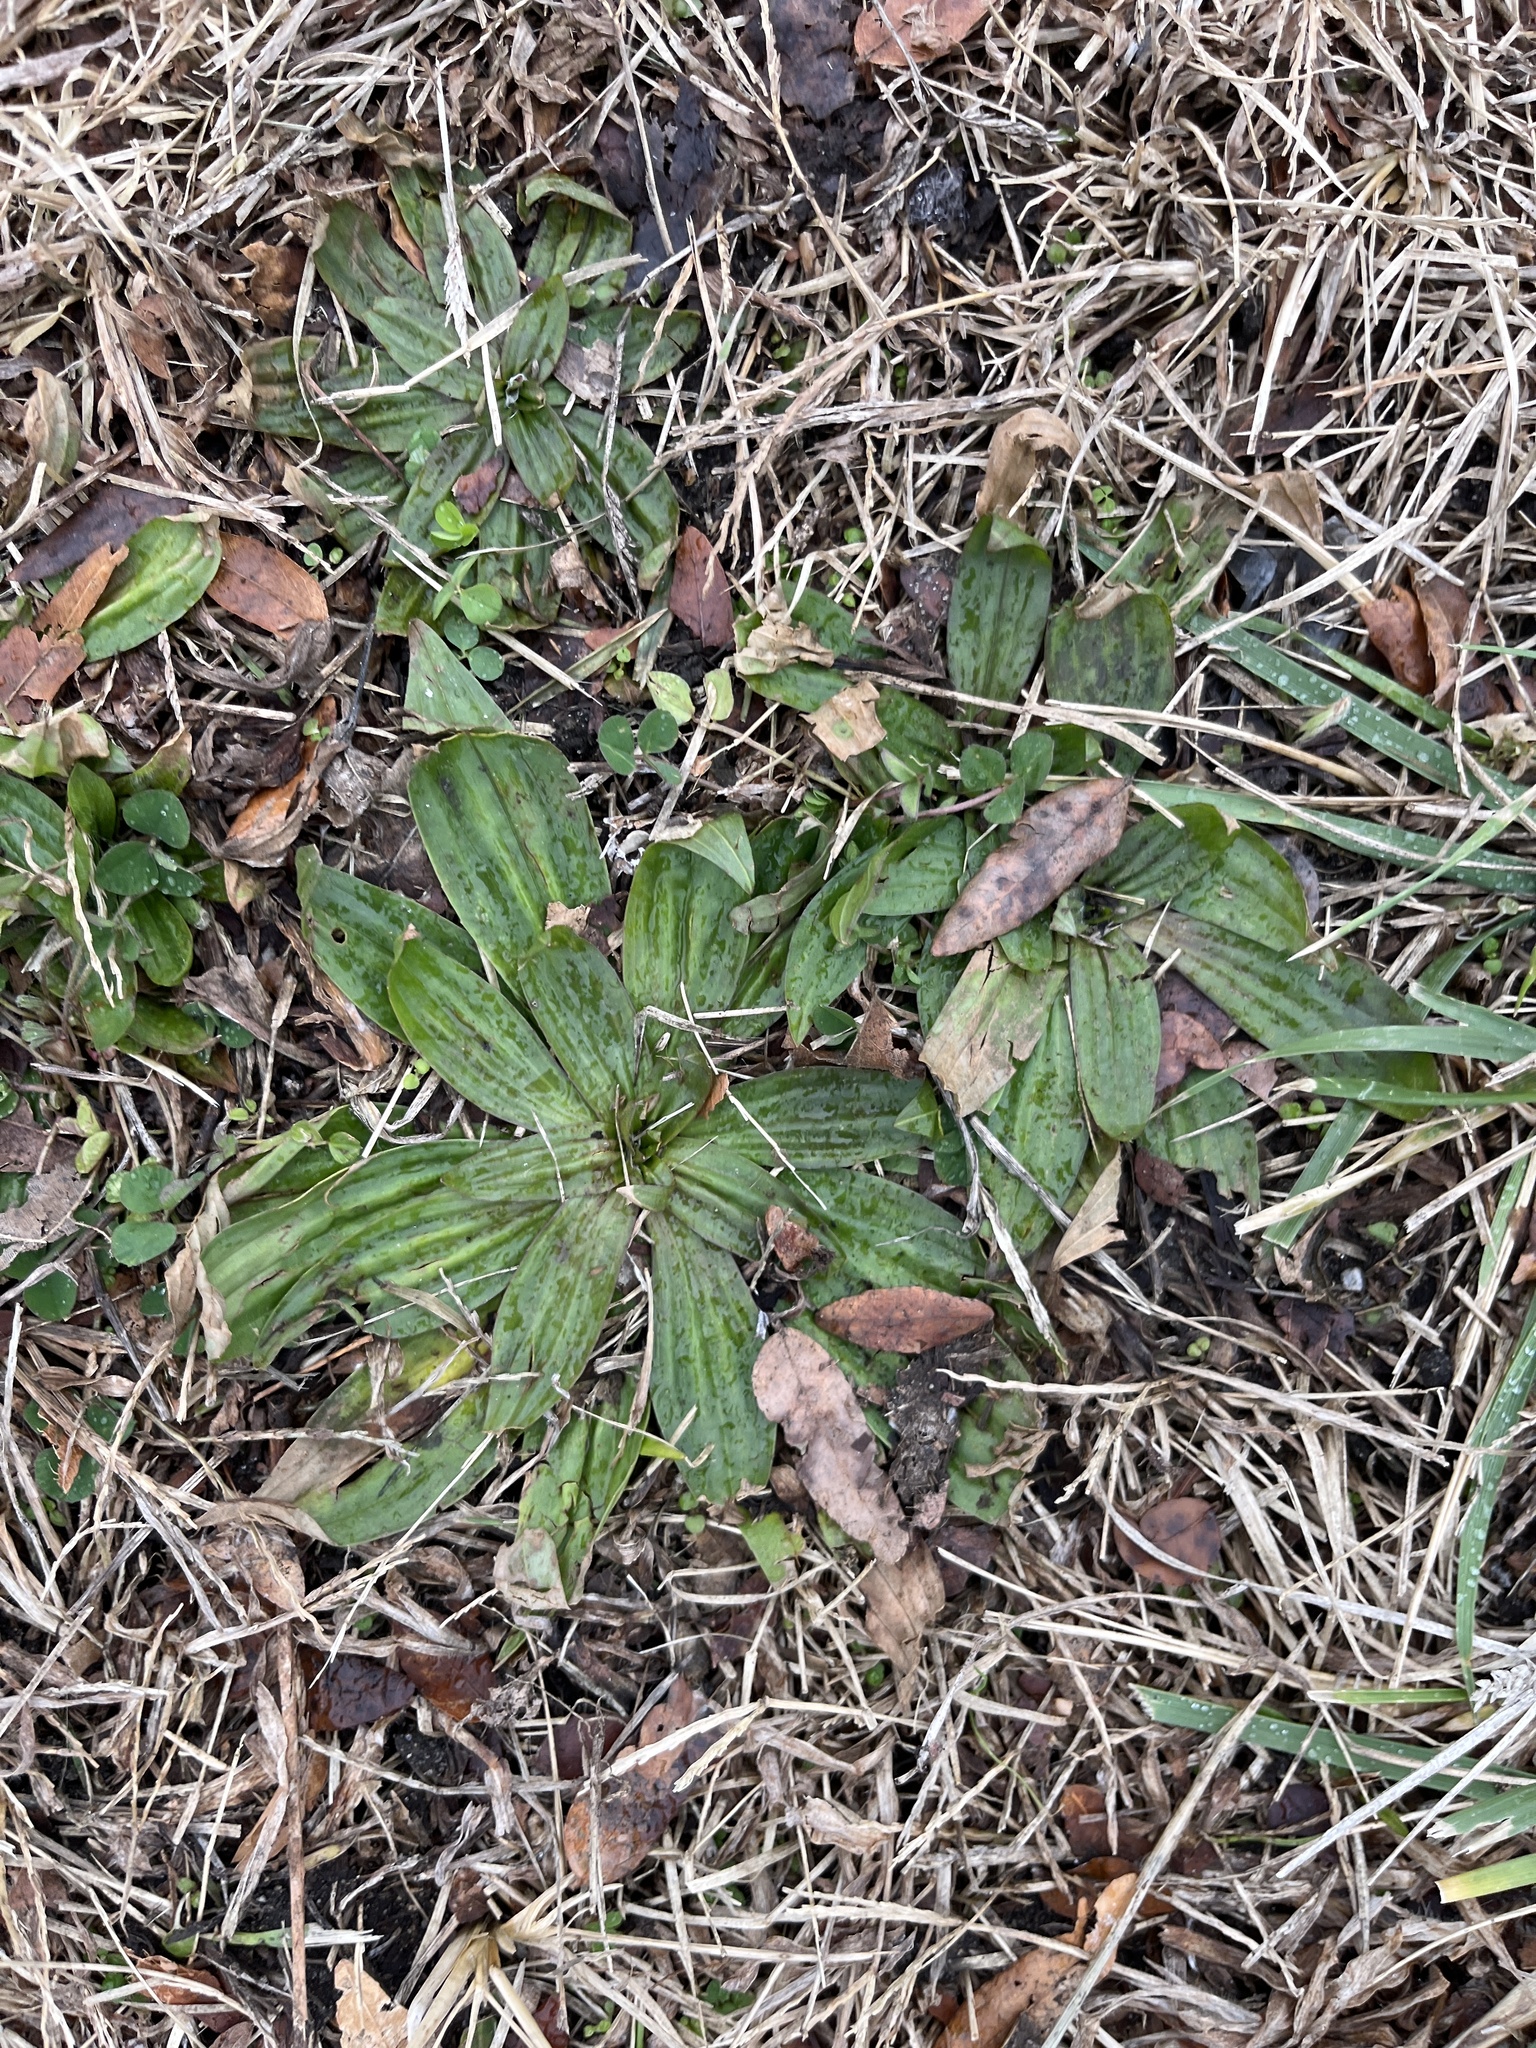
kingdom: Plantae
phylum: Tracheophyta
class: Magnoliopsida
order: Lamiales
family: Plantaginaceae
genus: Plantago
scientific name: Plantago lanceolata
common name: Ribwort plantain
